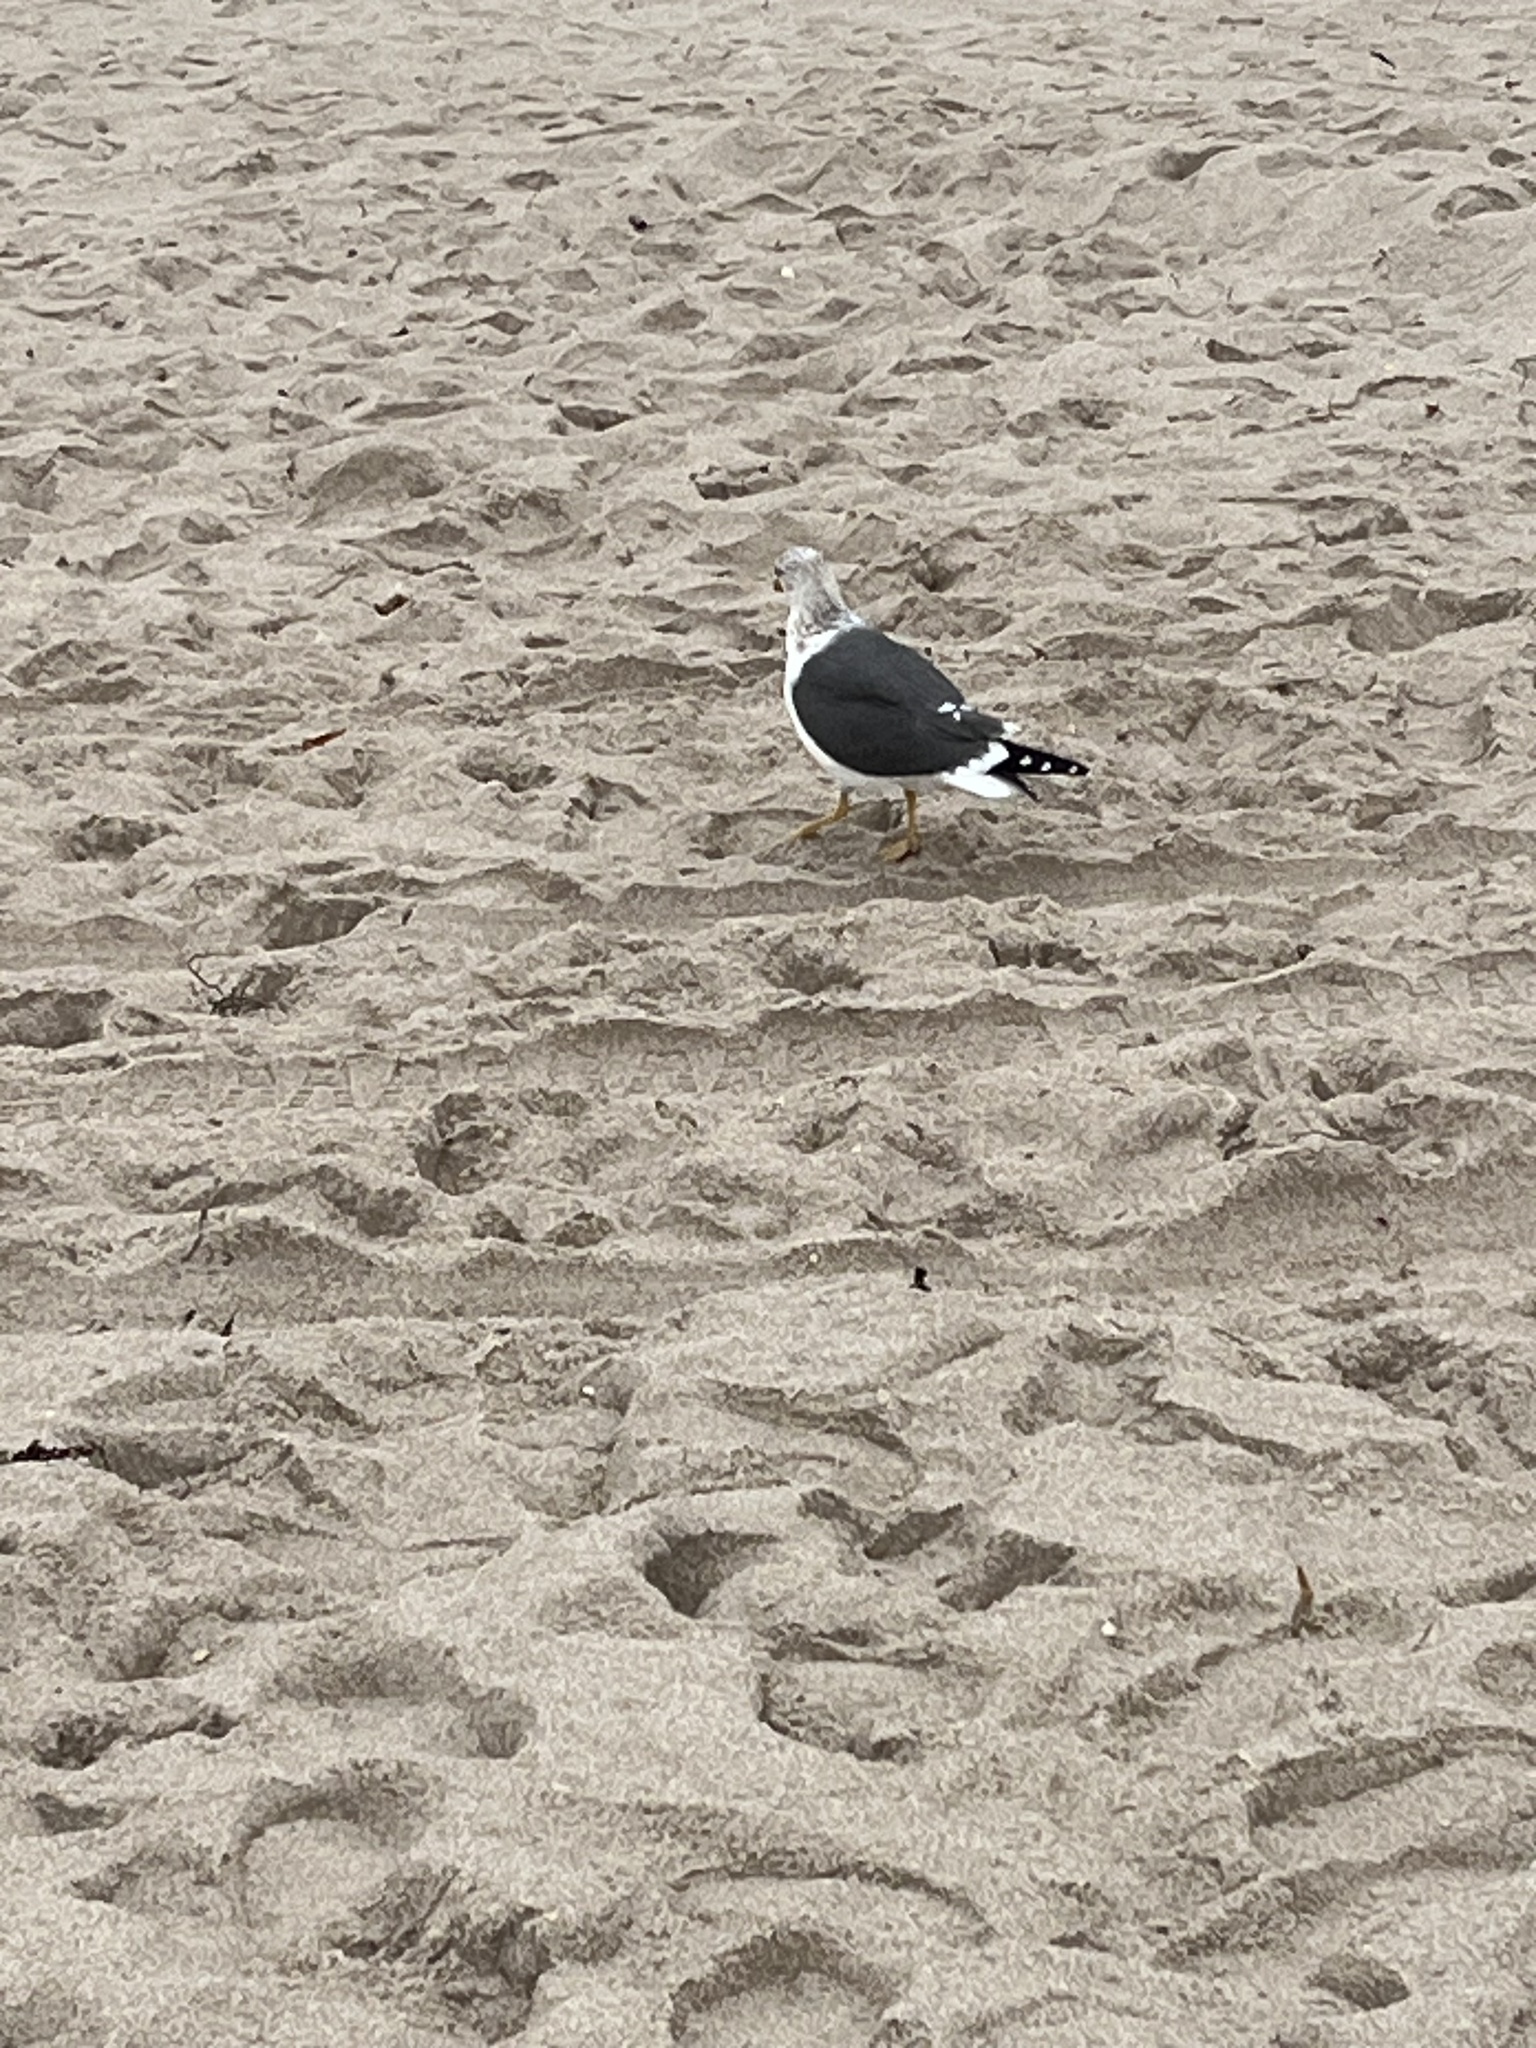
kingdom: Animalia
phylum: Chordata
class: Aves
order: Charadriiformes
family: Laridae
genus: Larus
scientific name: Larus fuscus
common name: Lesser black-backed gull
